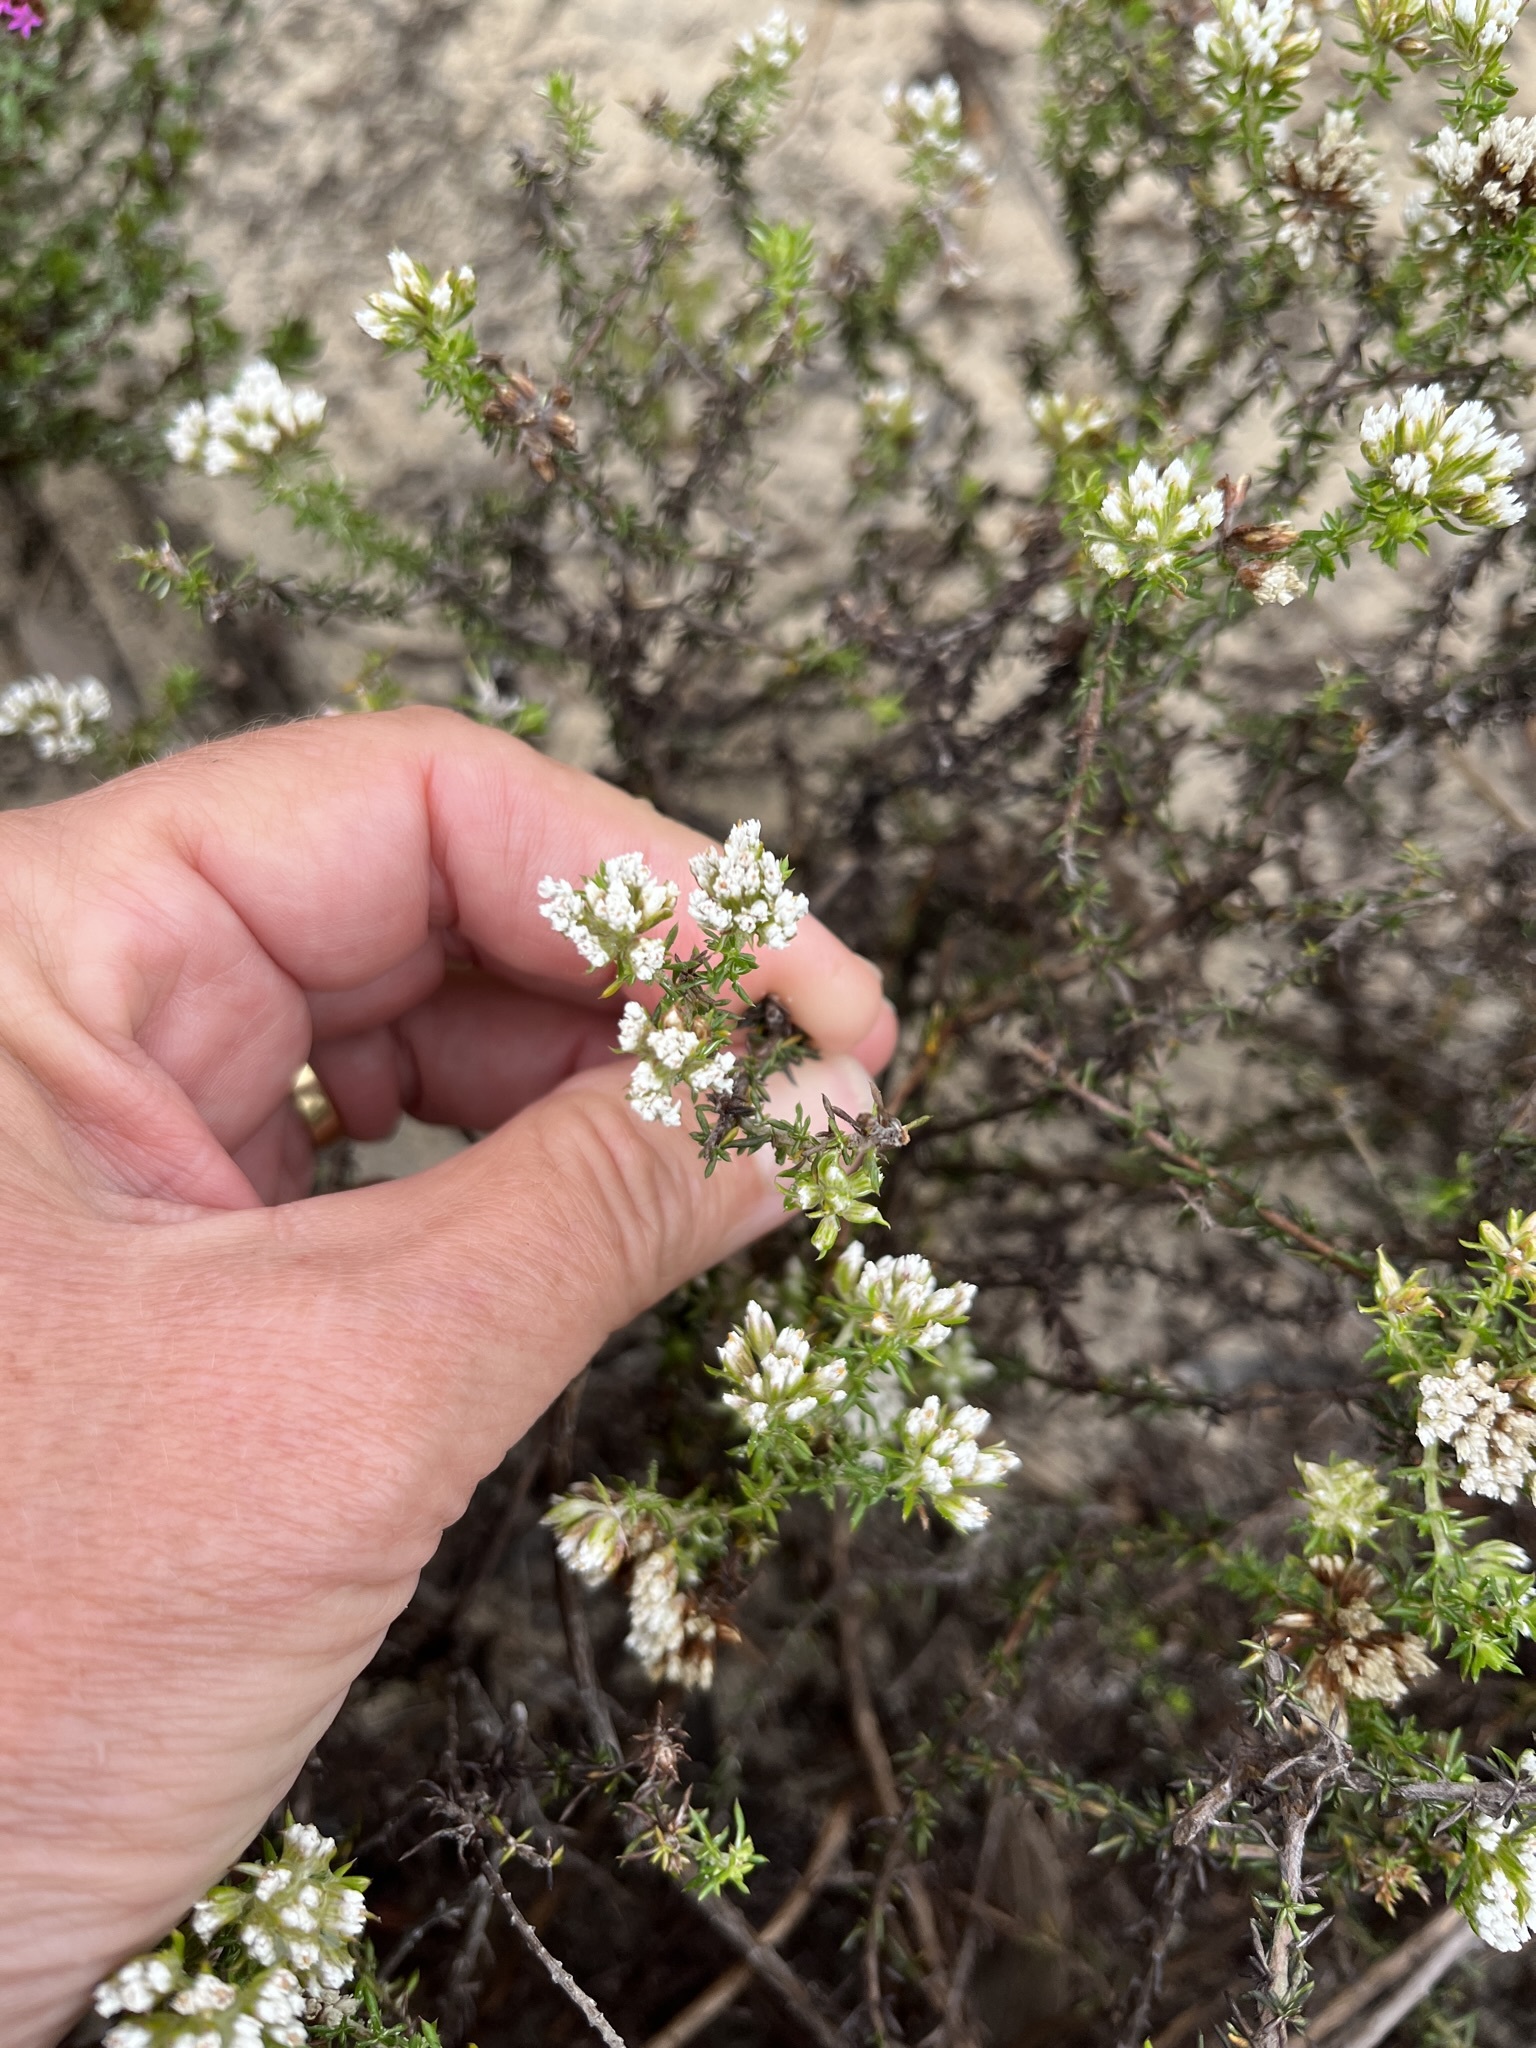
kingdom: Plantae
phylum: Tracheophyta
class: Magnoliopsida
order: Asterales
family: Asteraceae
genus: Metalasia
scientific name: Metalasia brevifolia
